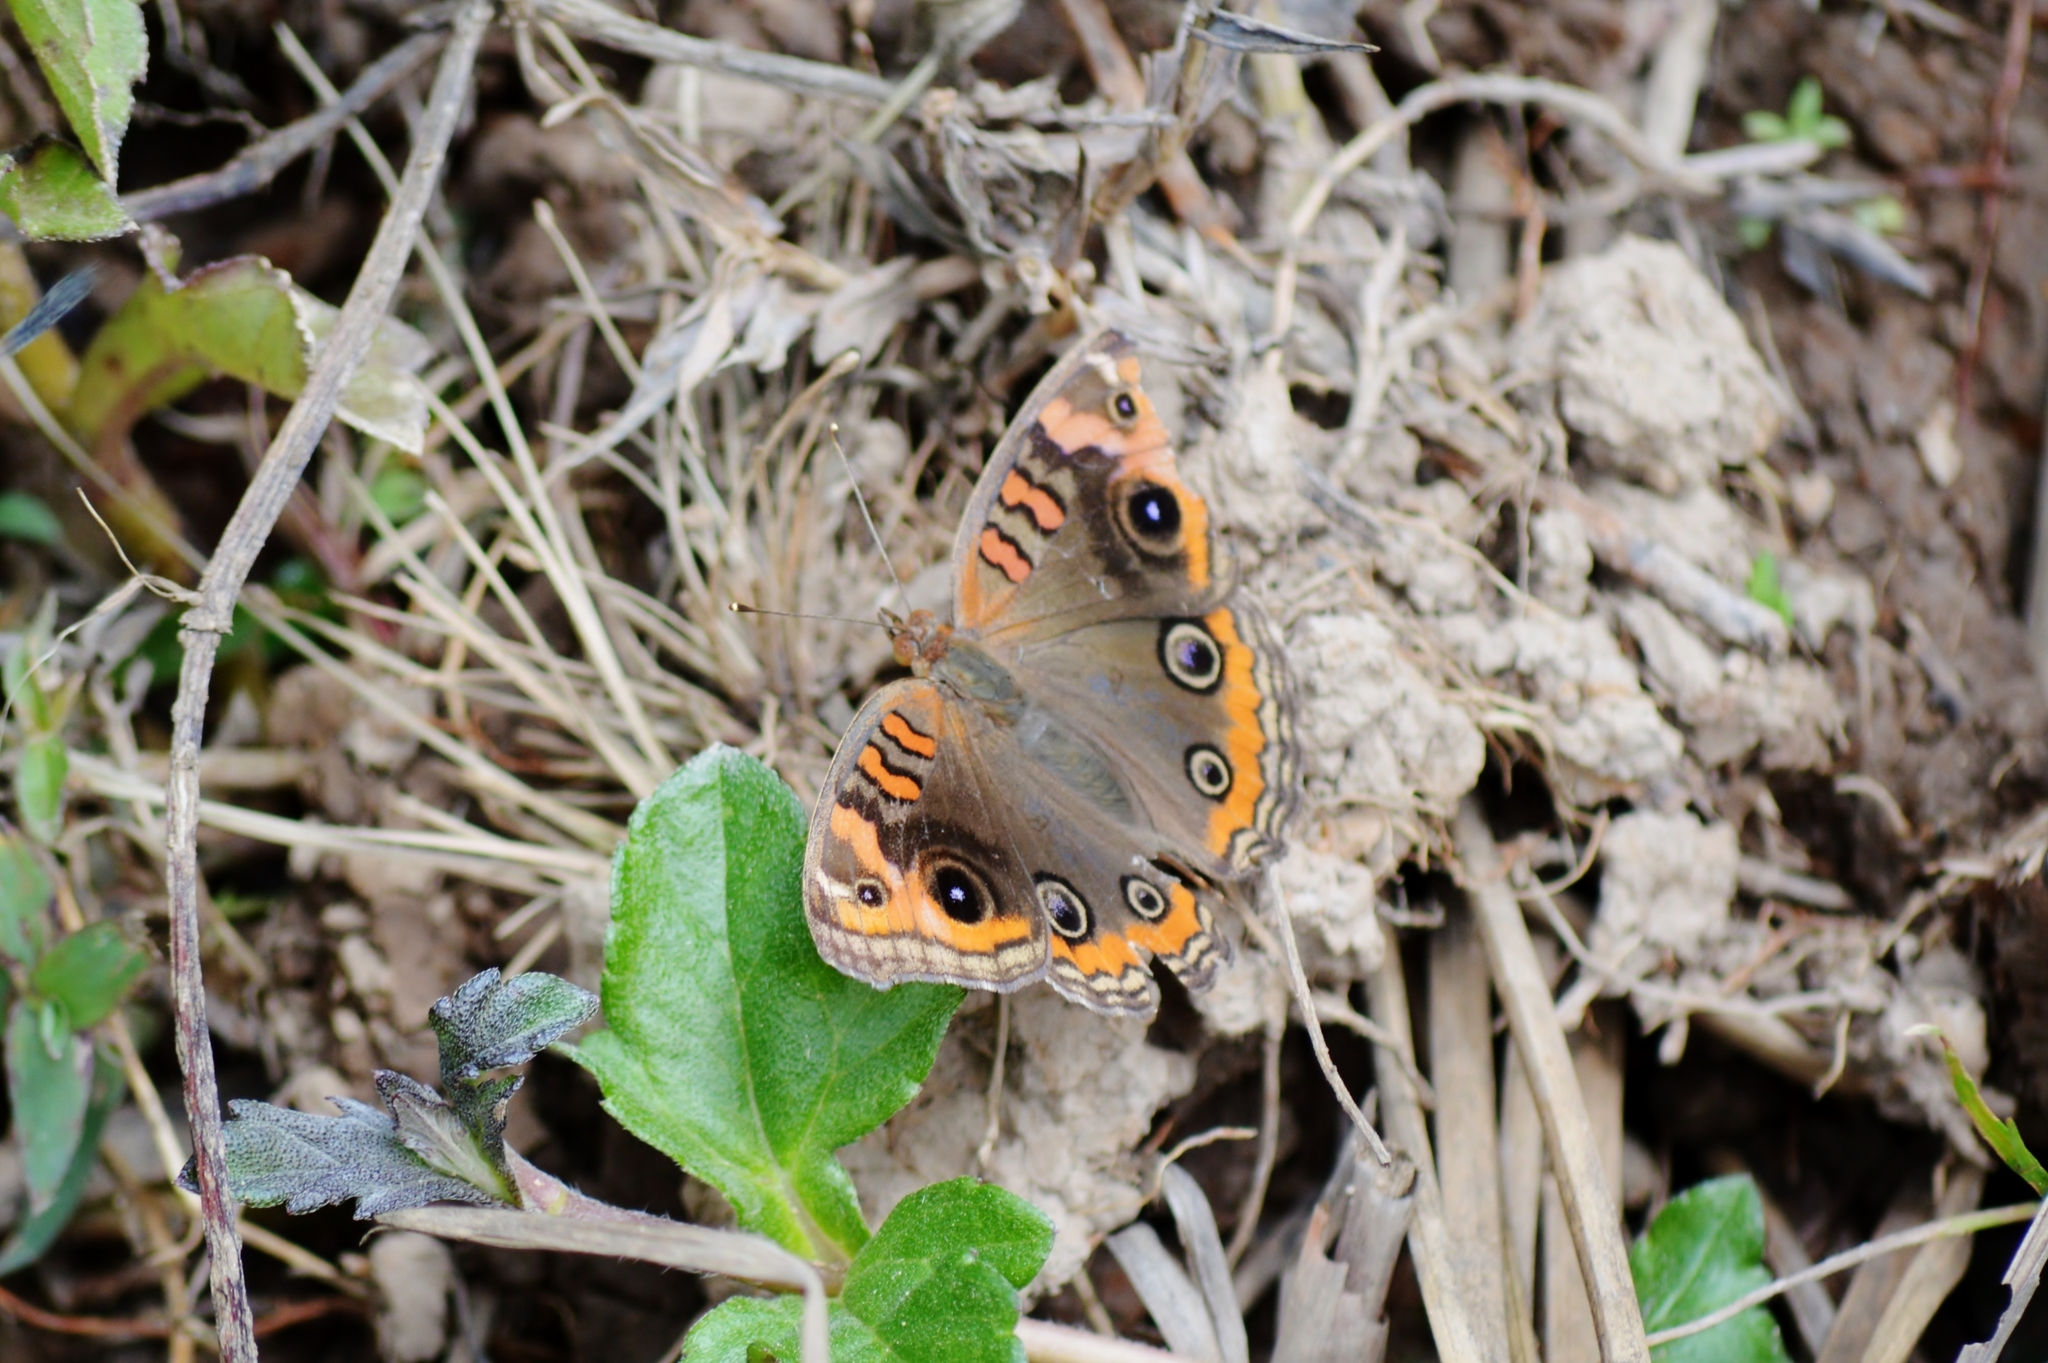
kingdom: Animalia
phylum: Arthropoda
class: Insecta
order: Lepidoptera
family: Nymphalidae
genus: Junonia
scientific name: Junonia evarete
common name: Black mangrove buckeye
